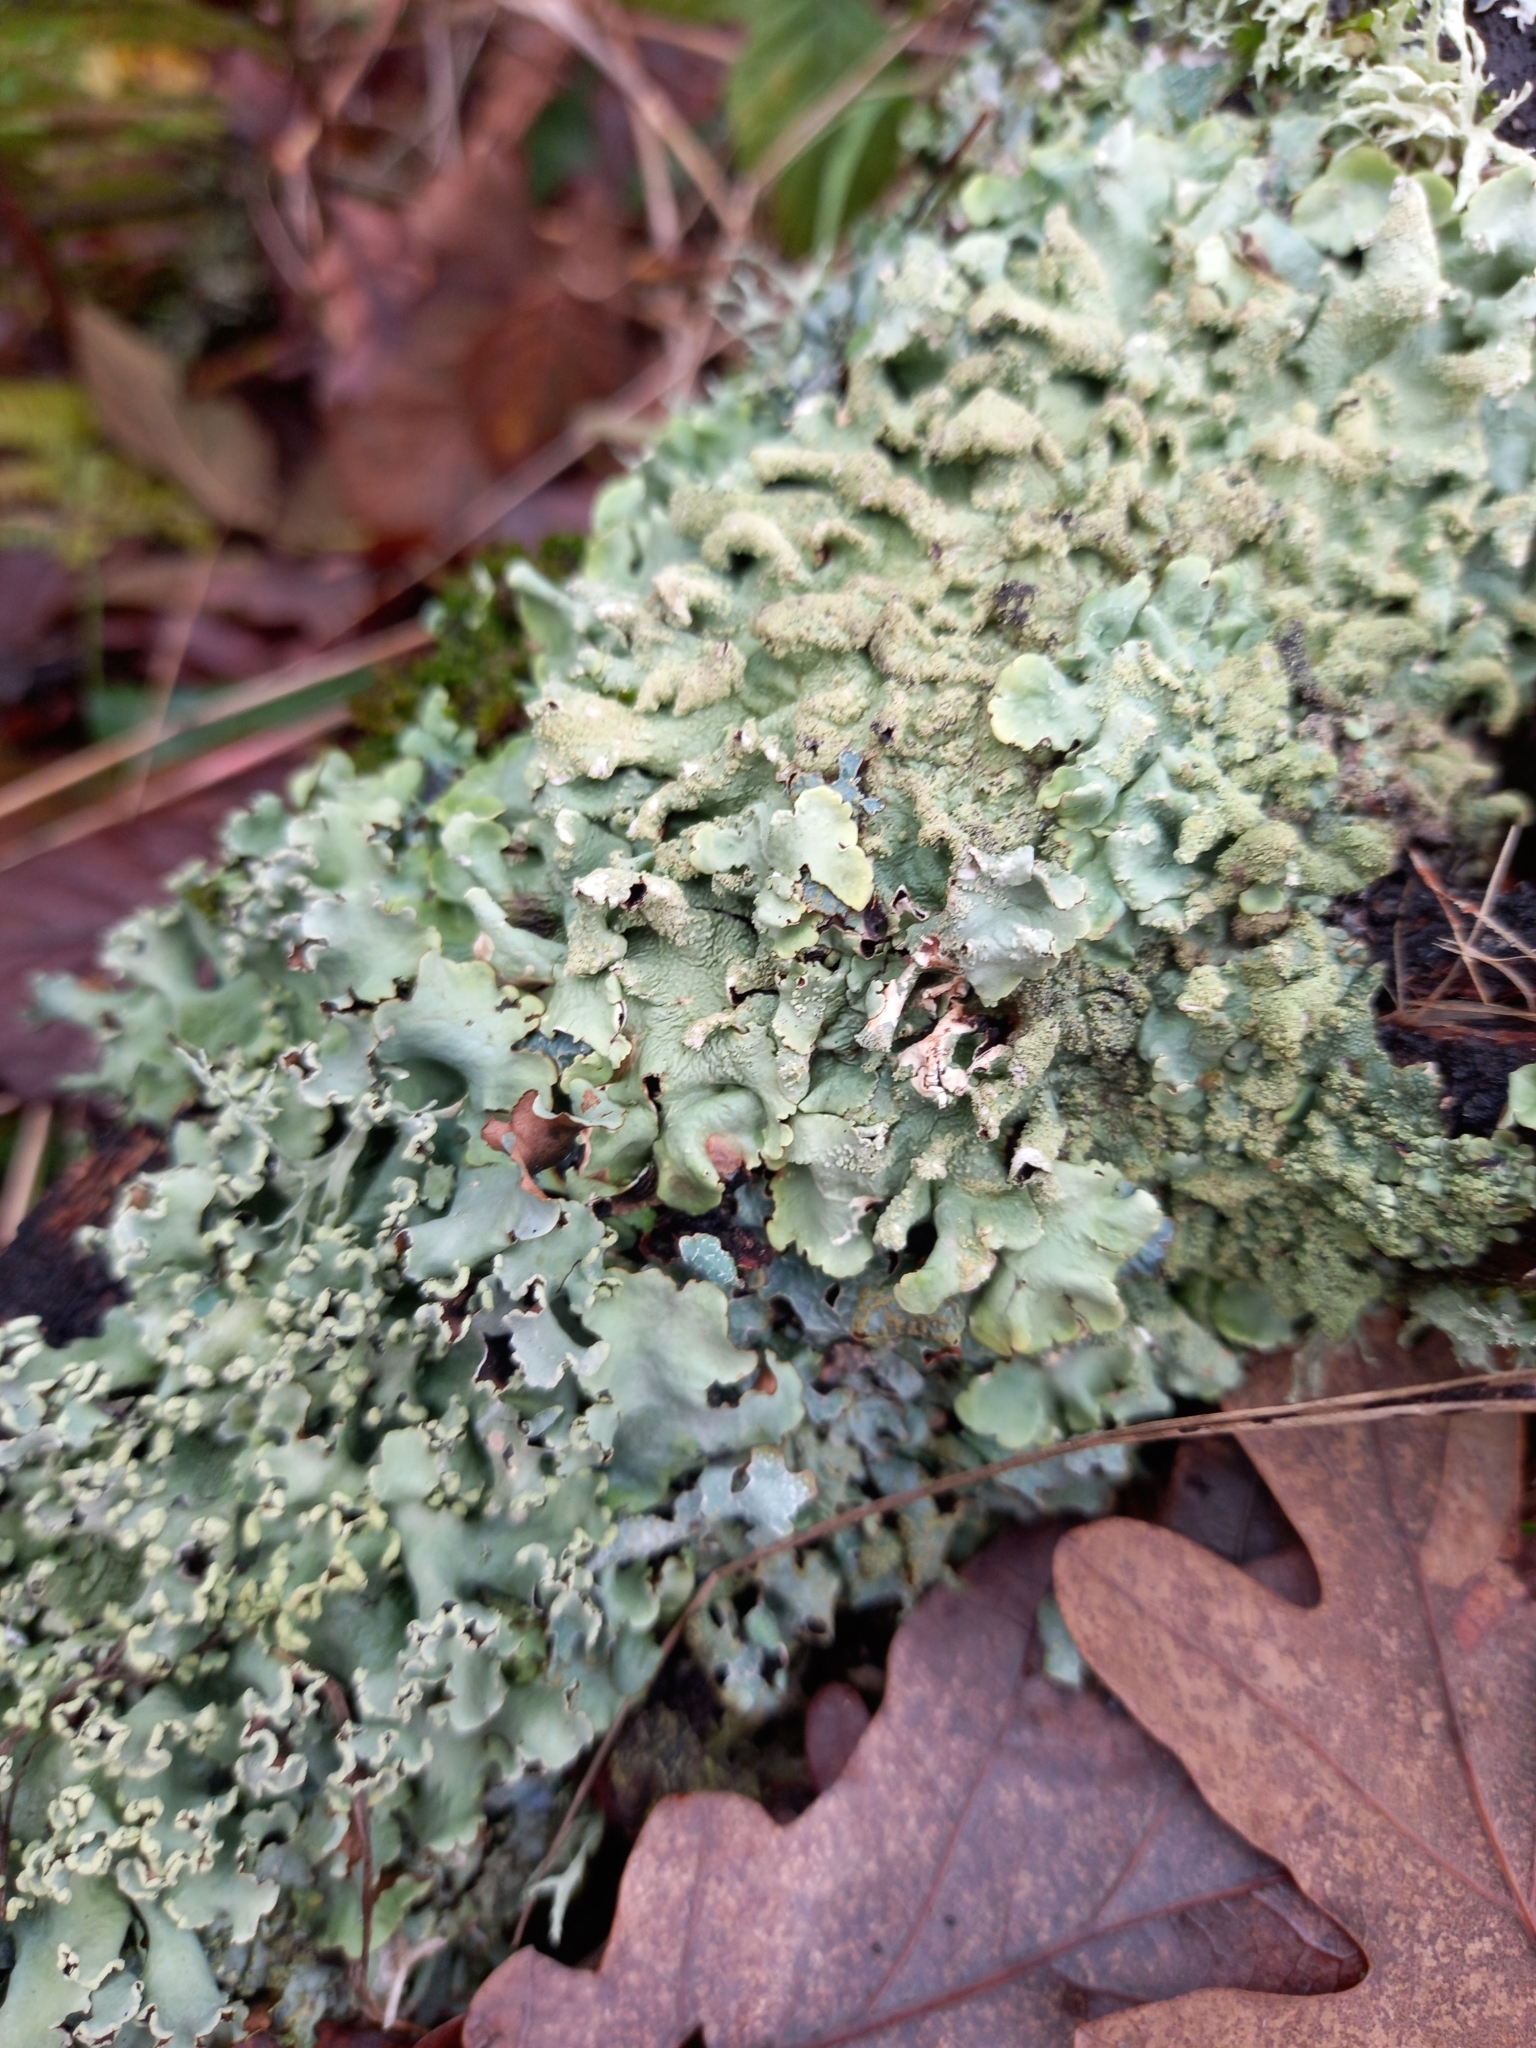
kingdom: Fungi
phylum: Ascomycota
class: Lecanoromycetes
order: Lecanorales
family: Parmeliaceae
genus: Flavoparmelia
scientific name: Flavoparmelia caperata
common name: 40-mile per hour lichen
